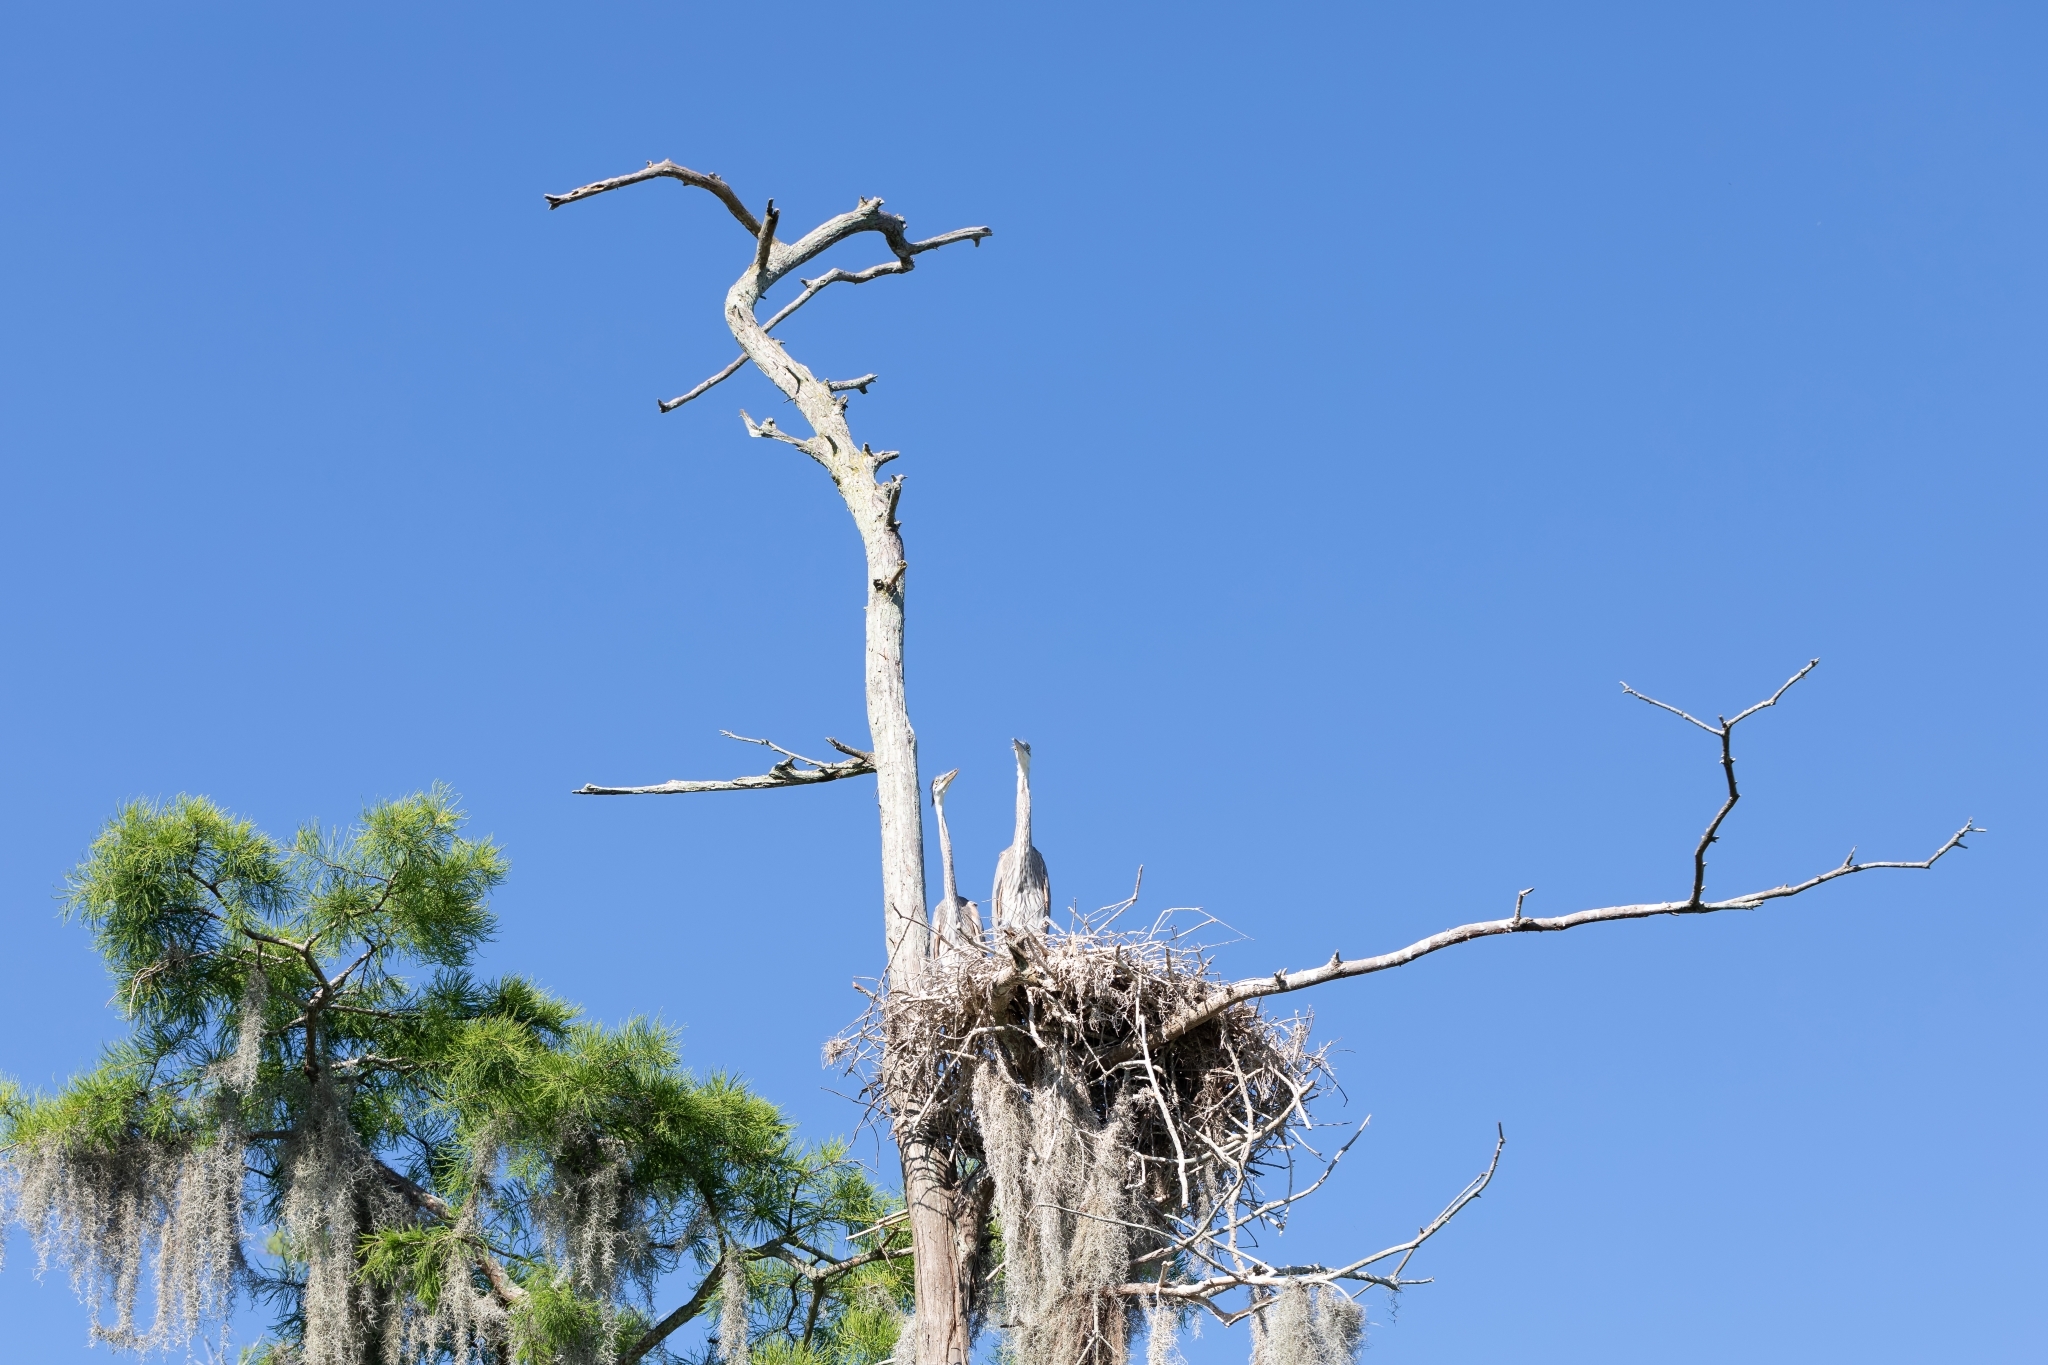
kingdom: Animalia
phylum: Chordata
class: Aves
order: Pelecaniformes
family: Ardeidae
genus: Ardea
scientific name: Ardea herodias
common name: Great blue heron
